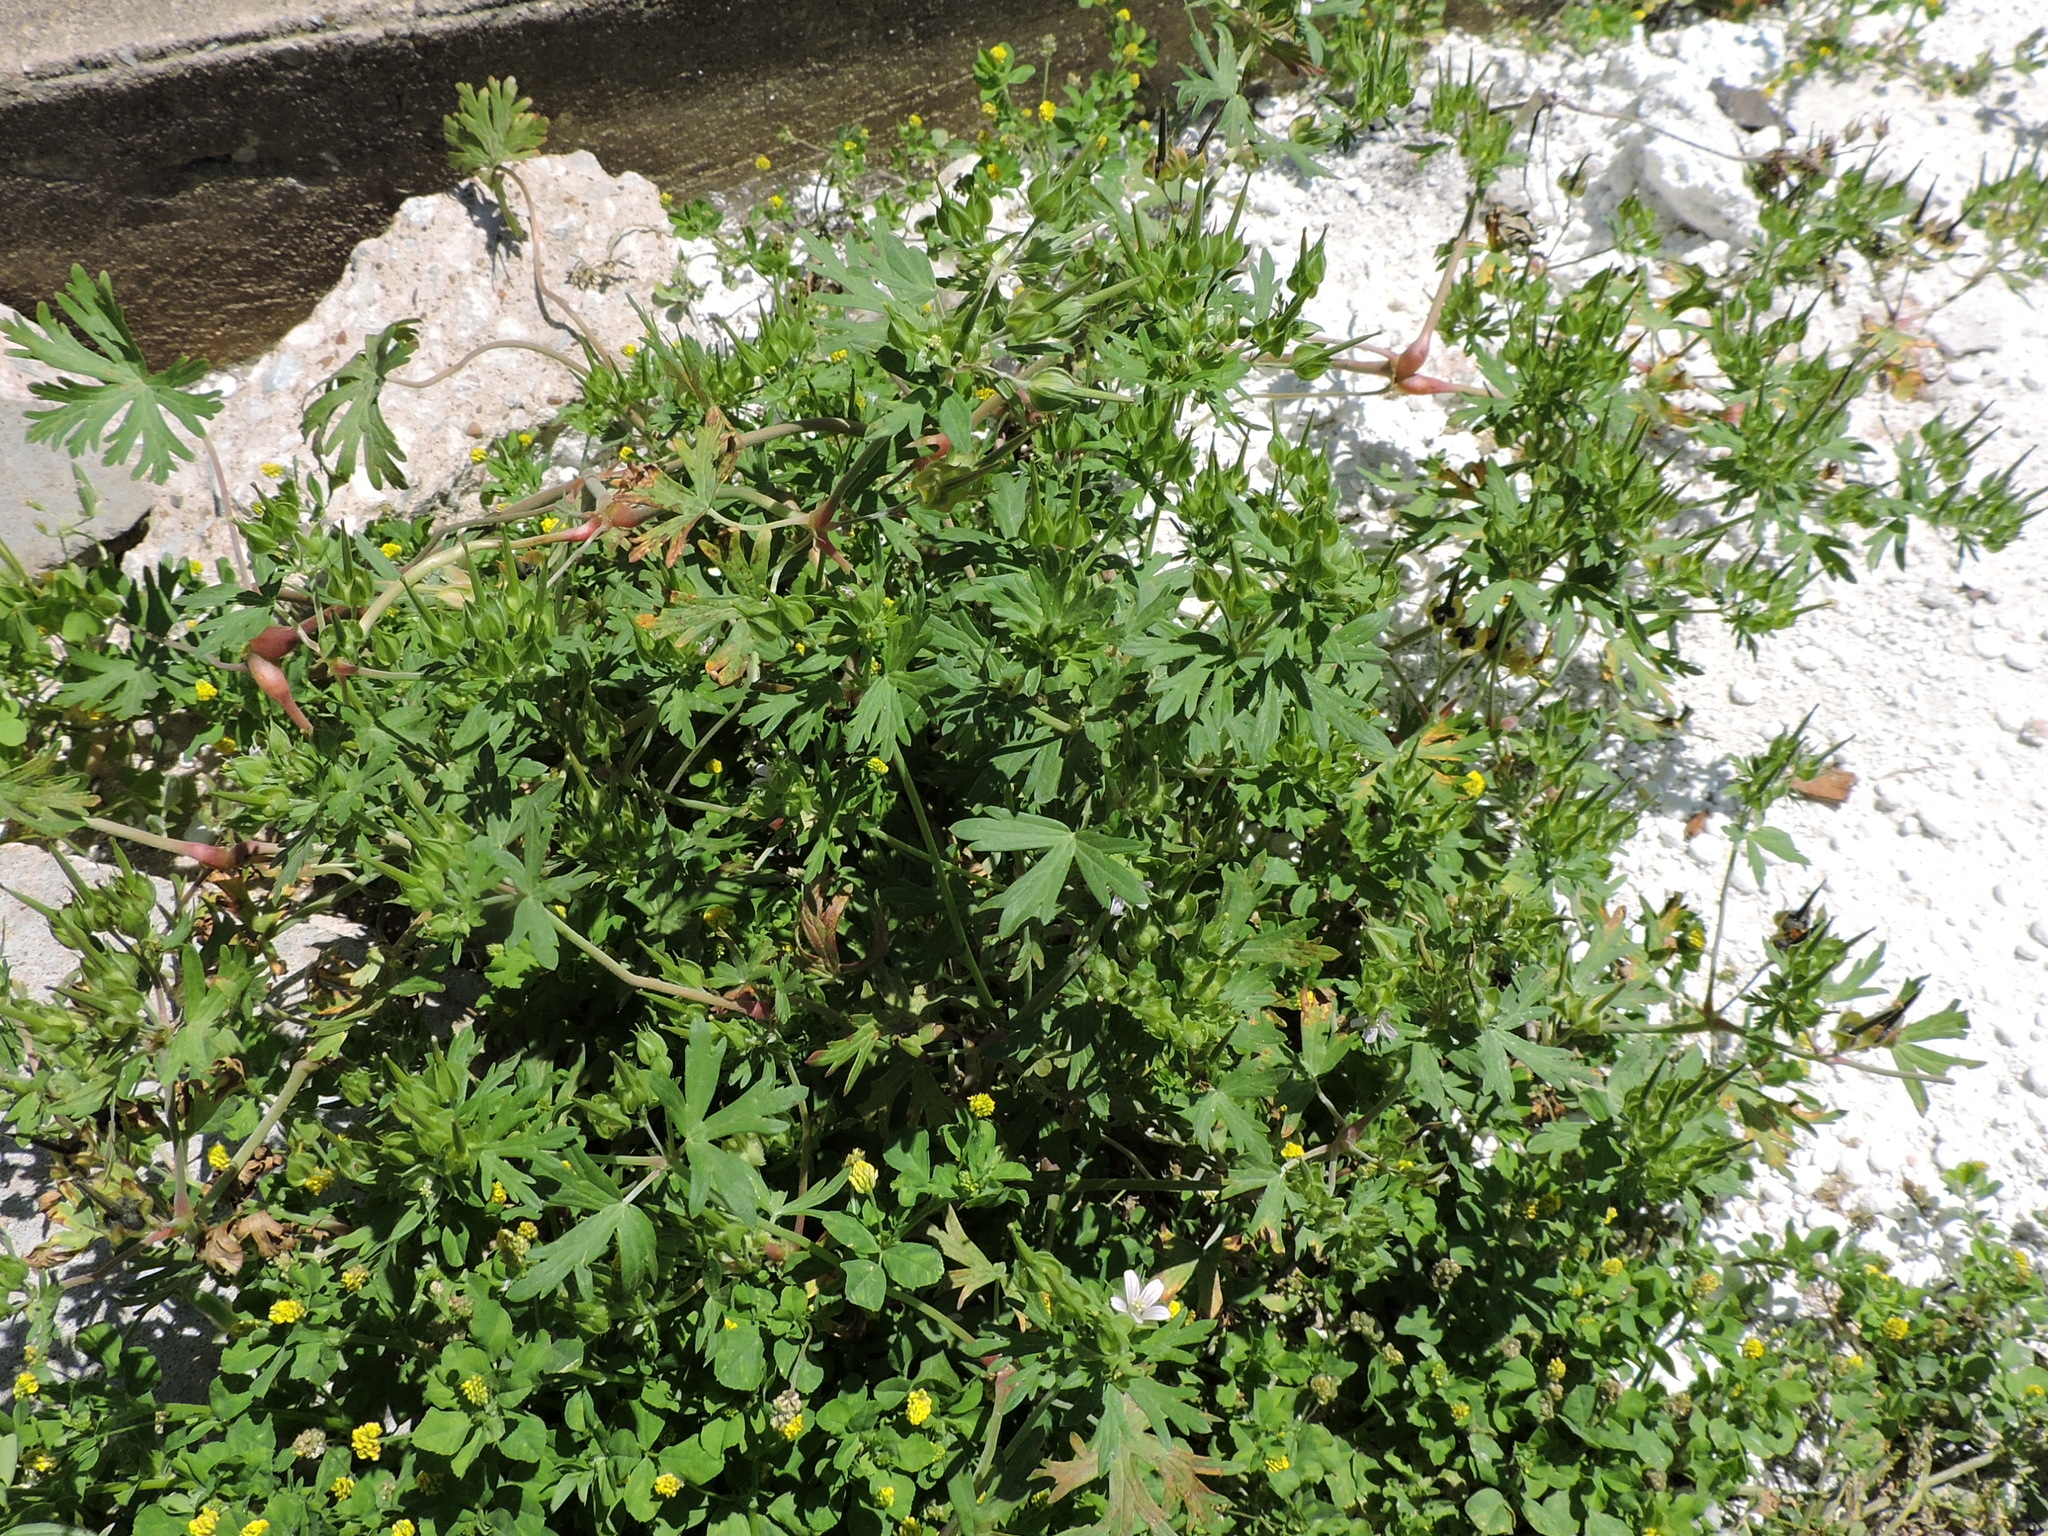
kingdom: Plantae
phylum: Tracheophyta
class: Magnoliopsida
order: Geraniales
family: Geraniaceae
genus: Geranium
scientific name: Geranium carolinianum
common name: Carolina crane's-bill
